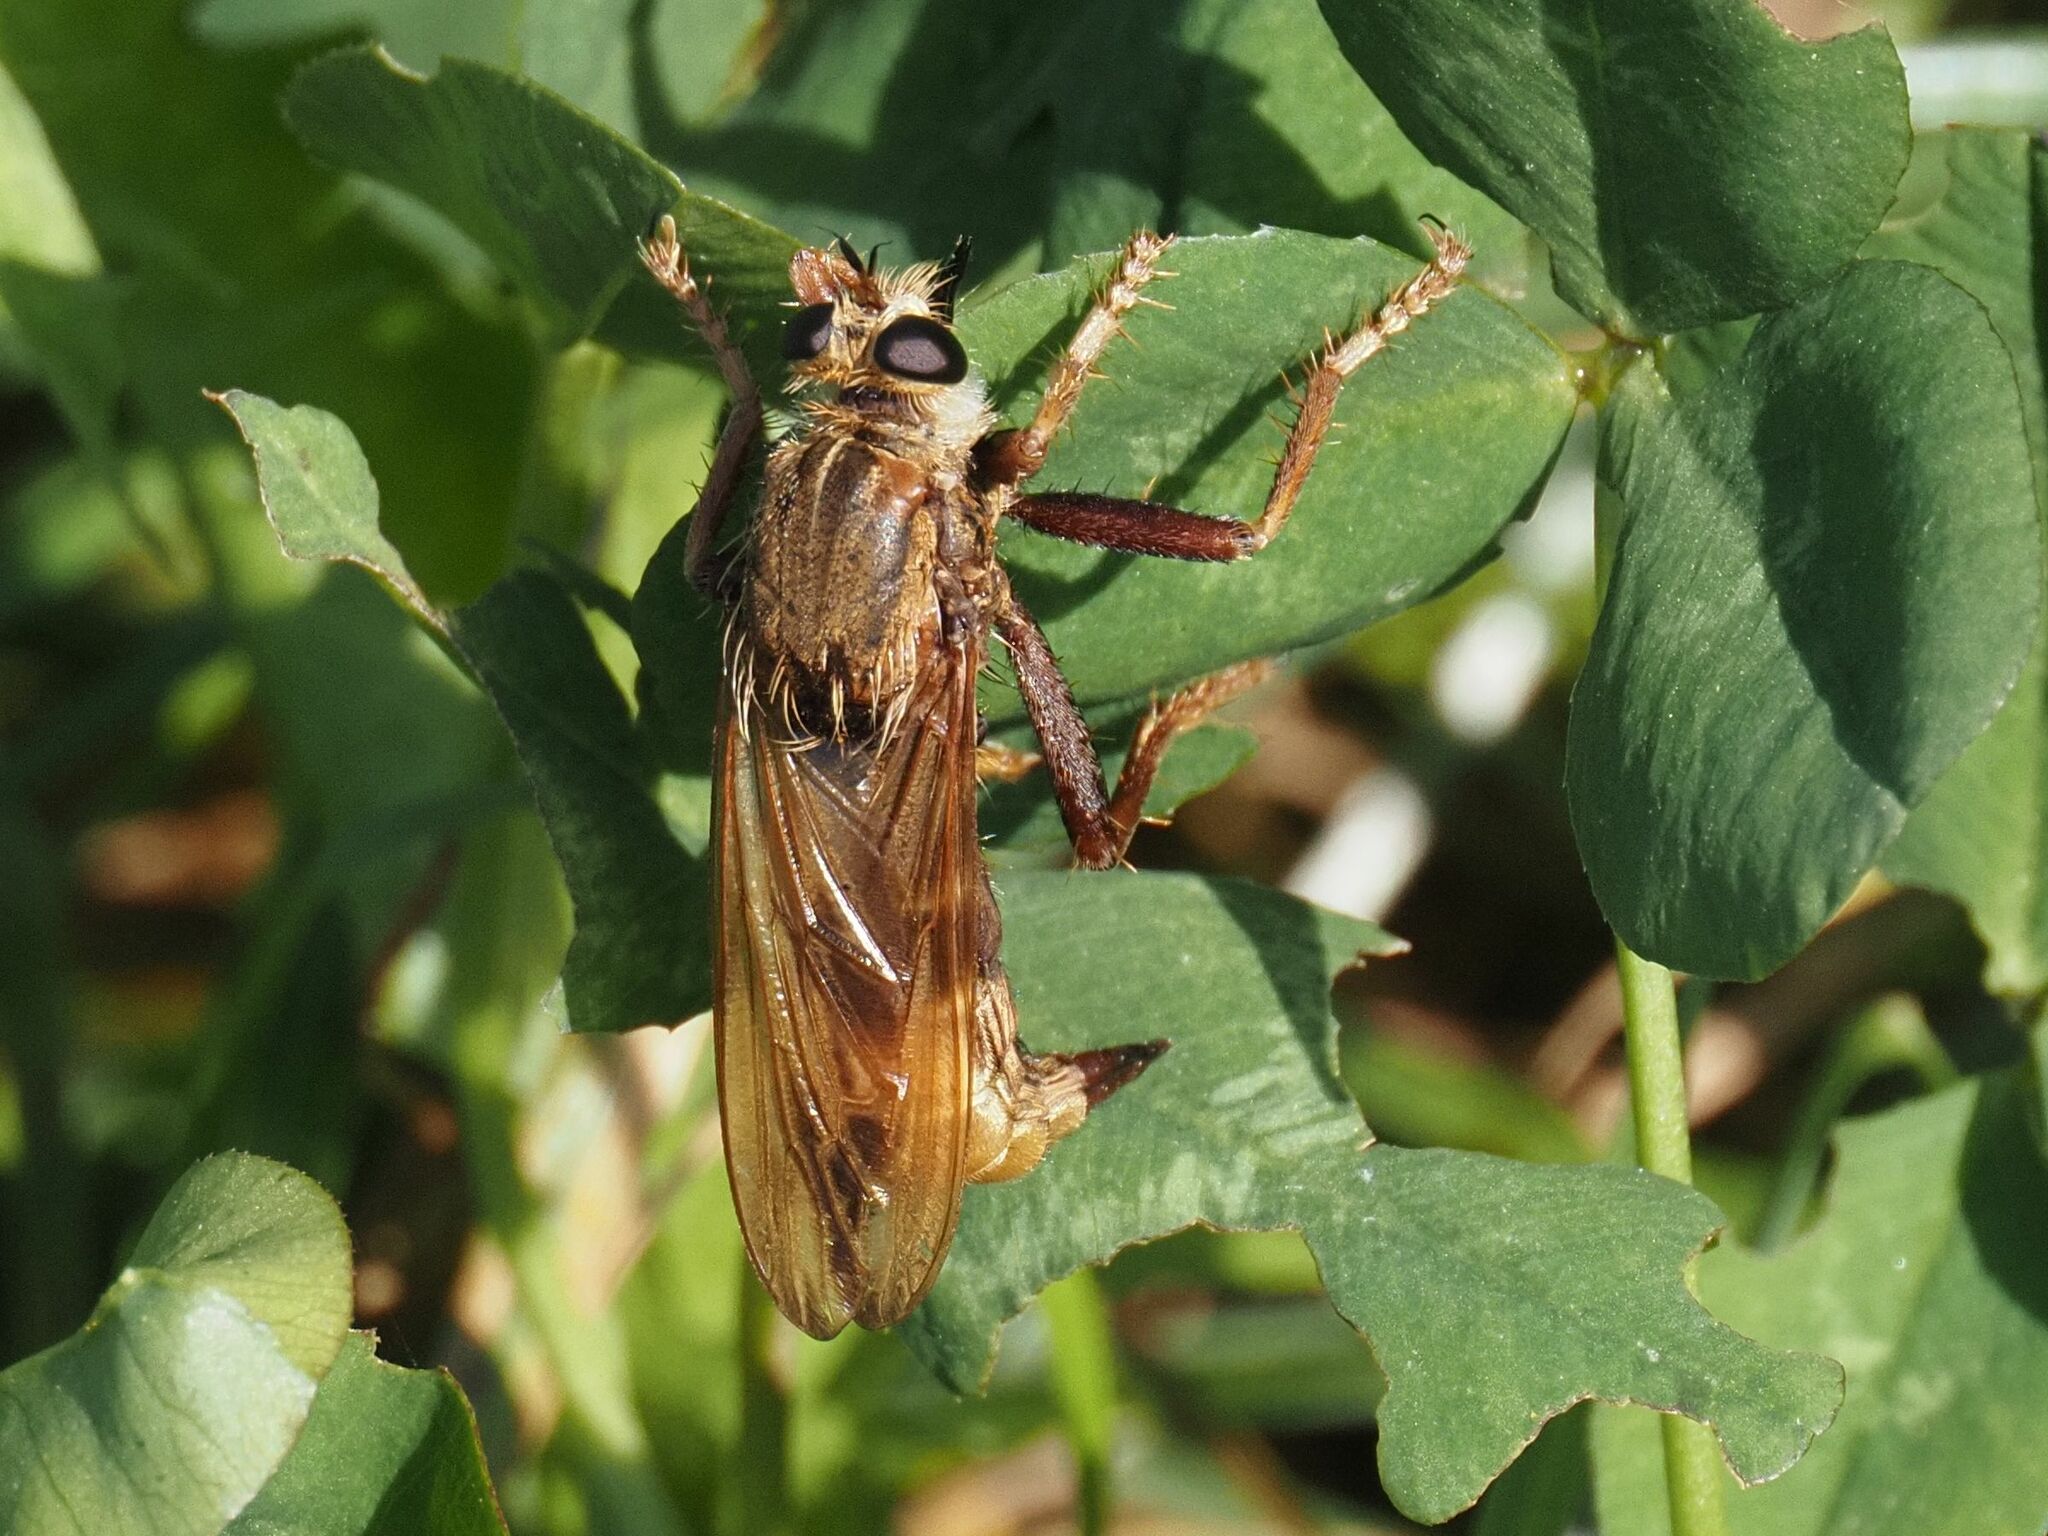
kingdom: Animalia
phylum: Arthropoda
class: Insecta
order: Diptera
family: Asilidae
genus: Asilus
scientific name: Asilus crabroniformis
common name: Hornet robberfly
